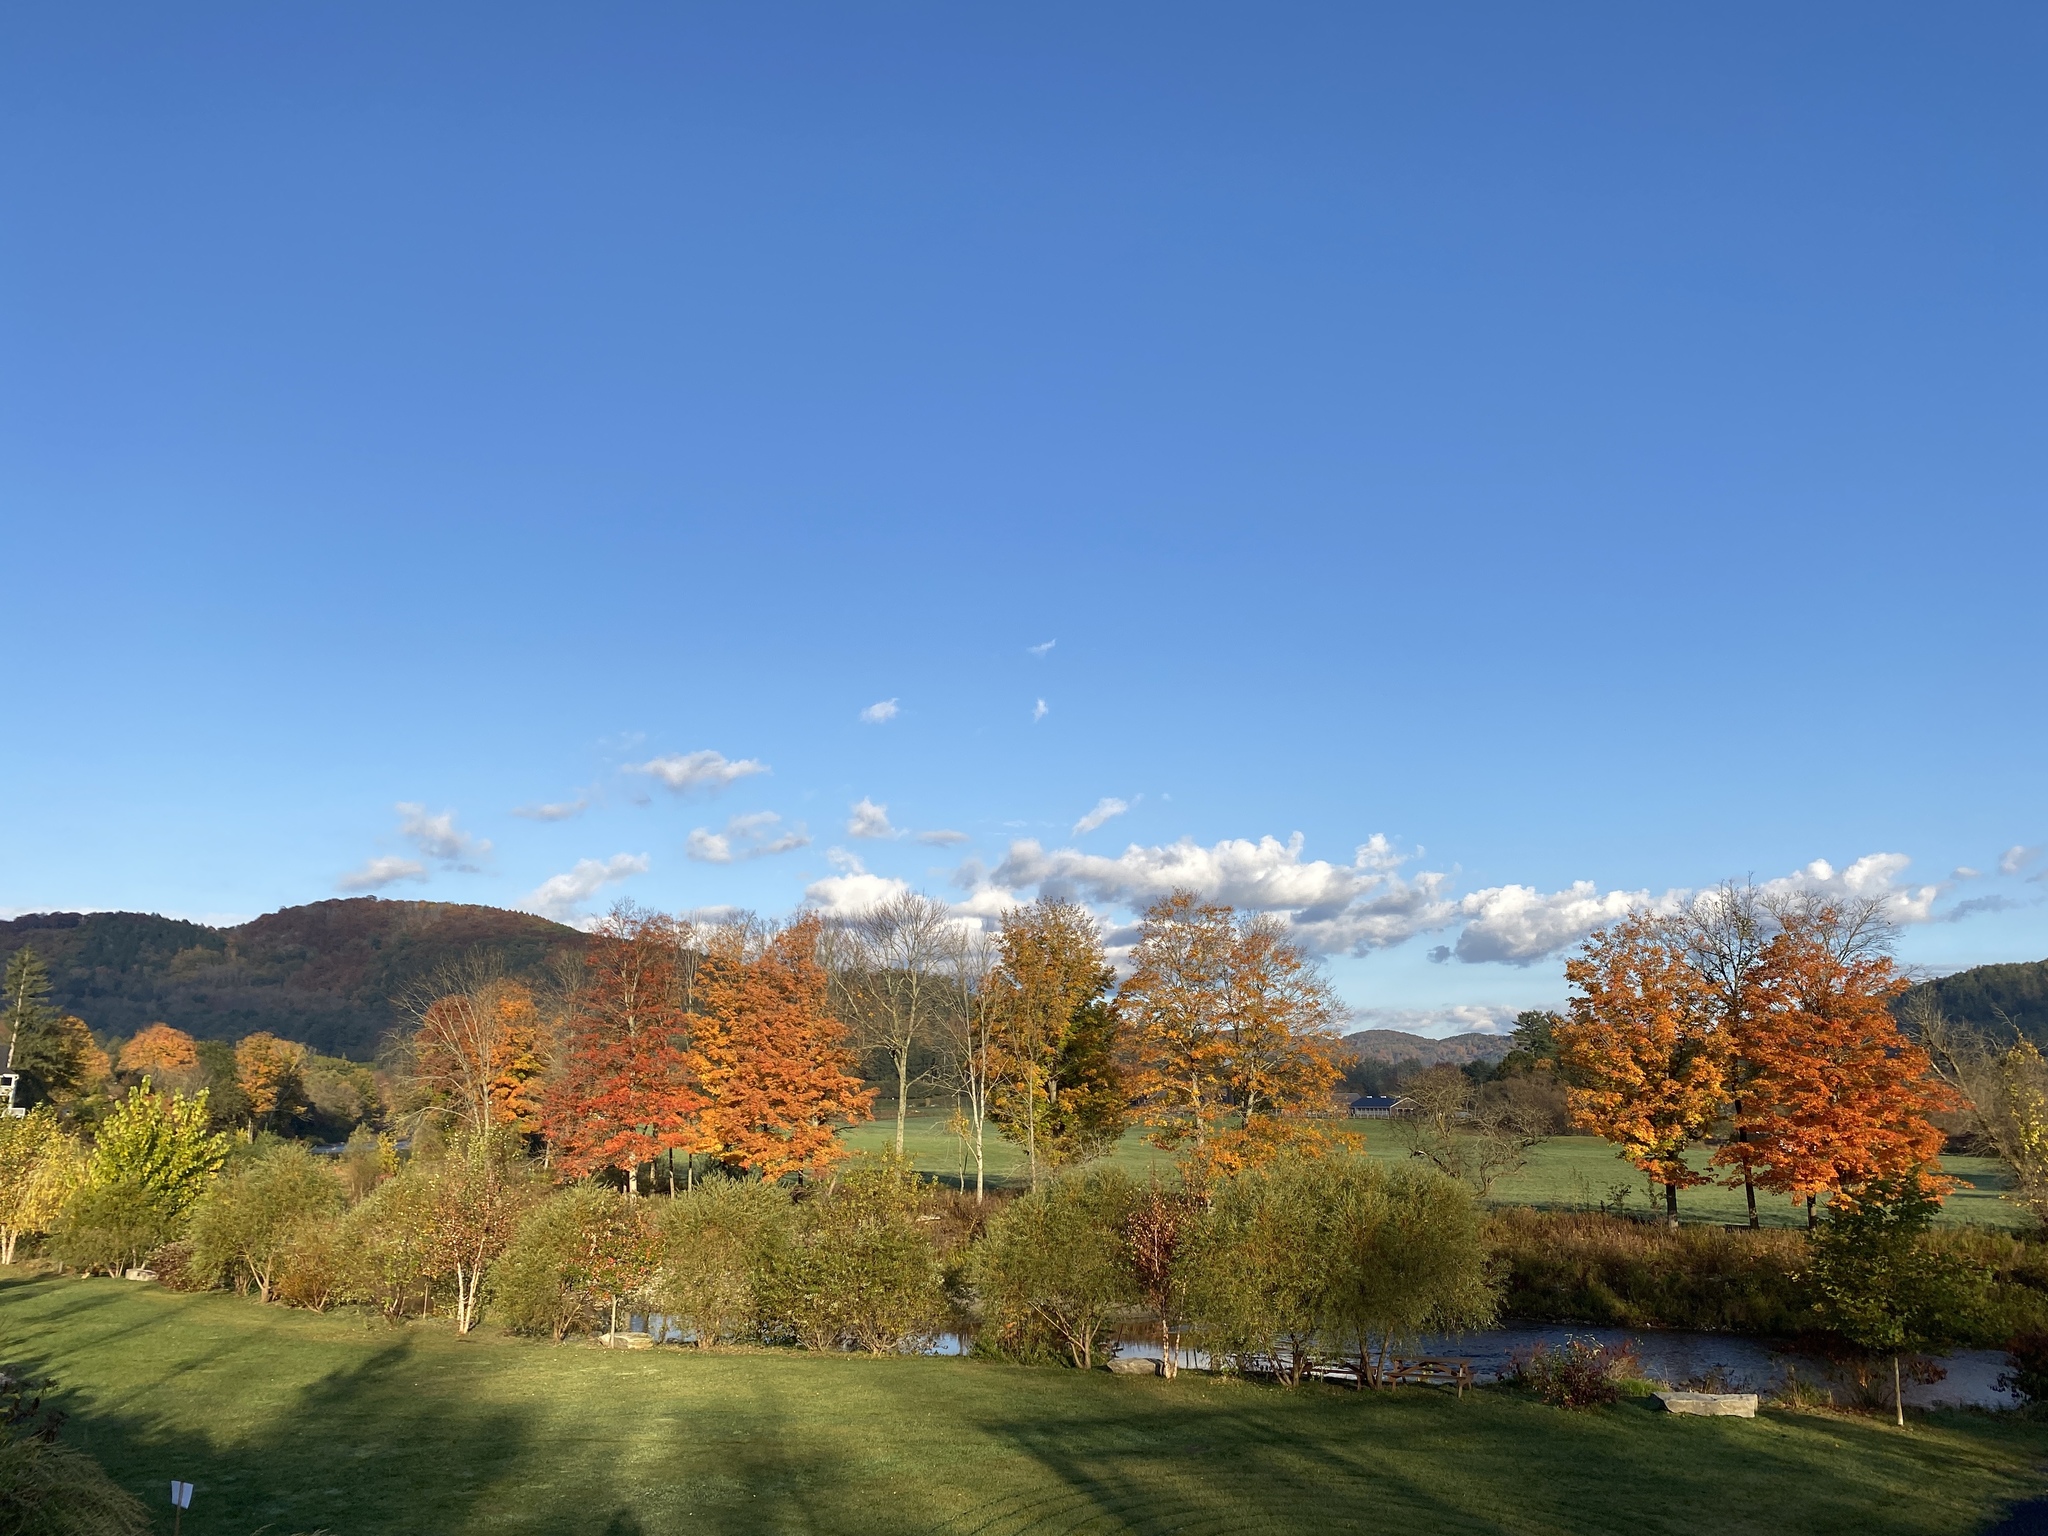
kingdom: Plantae
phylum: Tracheophyta
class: Magnoliopsida
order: Sapindales
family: Sapindaceae
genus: Acer
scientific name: Acer saccharum
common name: Sugar maple
